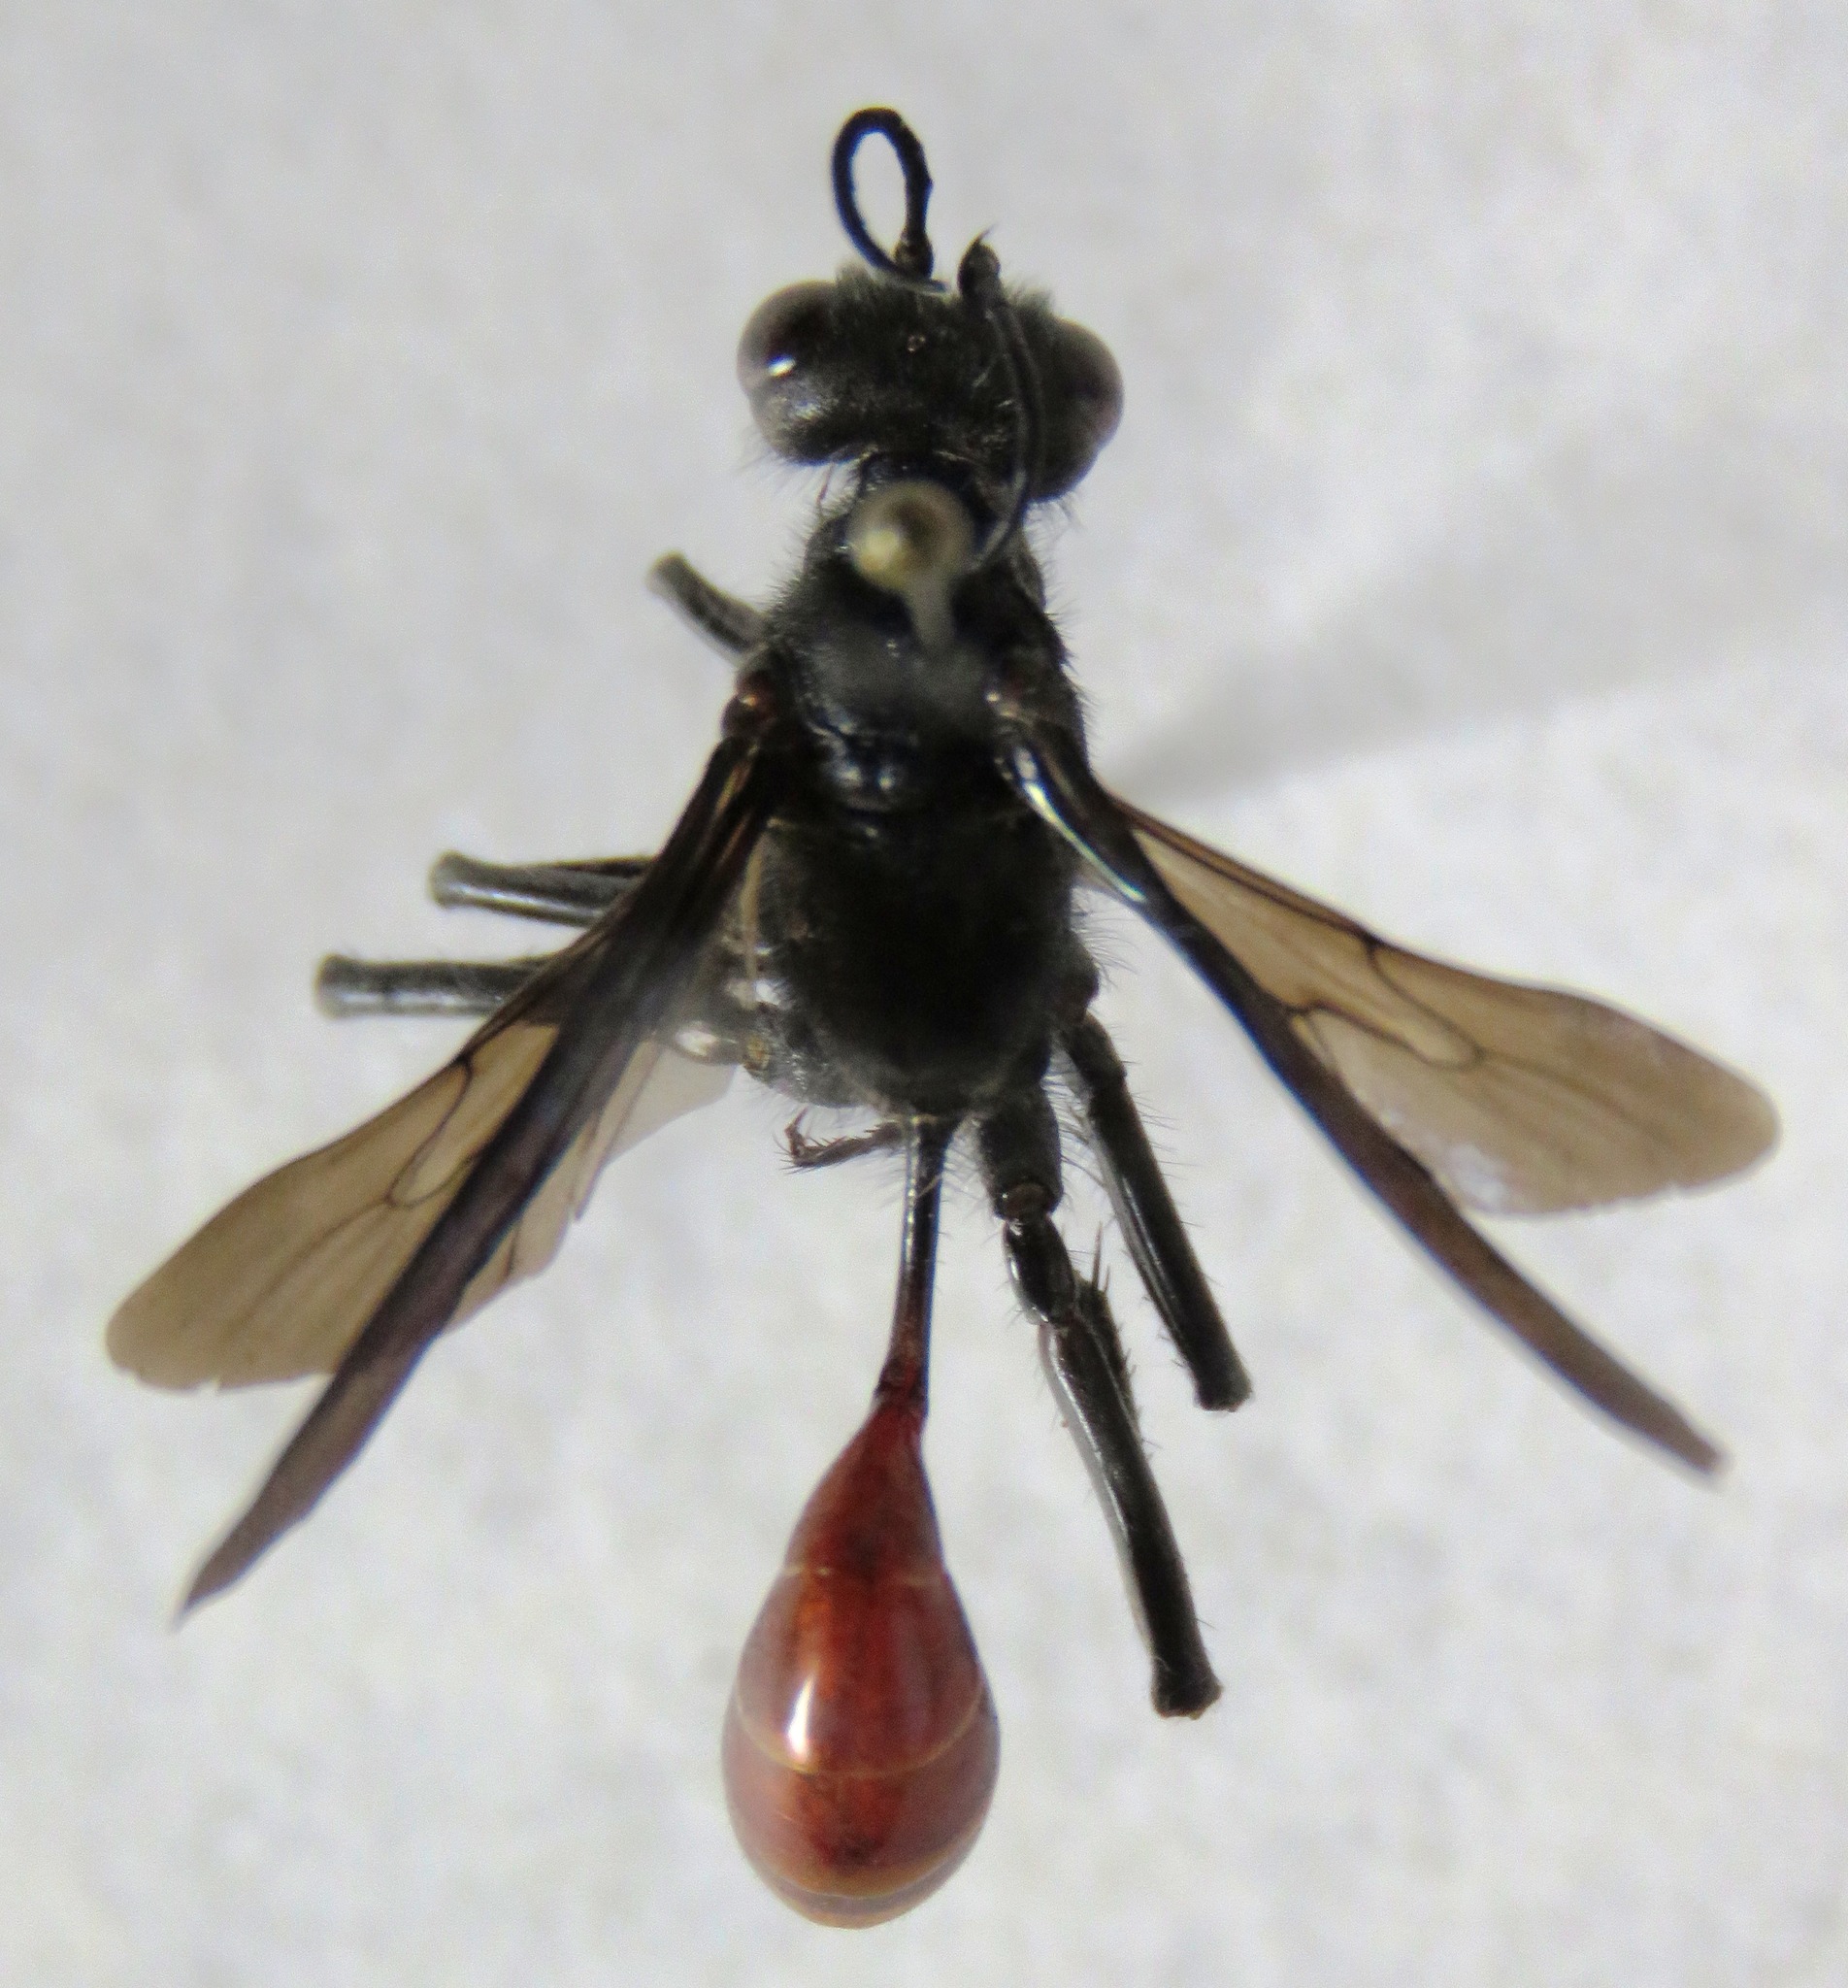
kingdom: Animalia
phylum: Arthropoda
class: Insecta
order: Hymenoptera
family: Sphecidae
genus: Podalonia
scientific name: Podalonia montana
